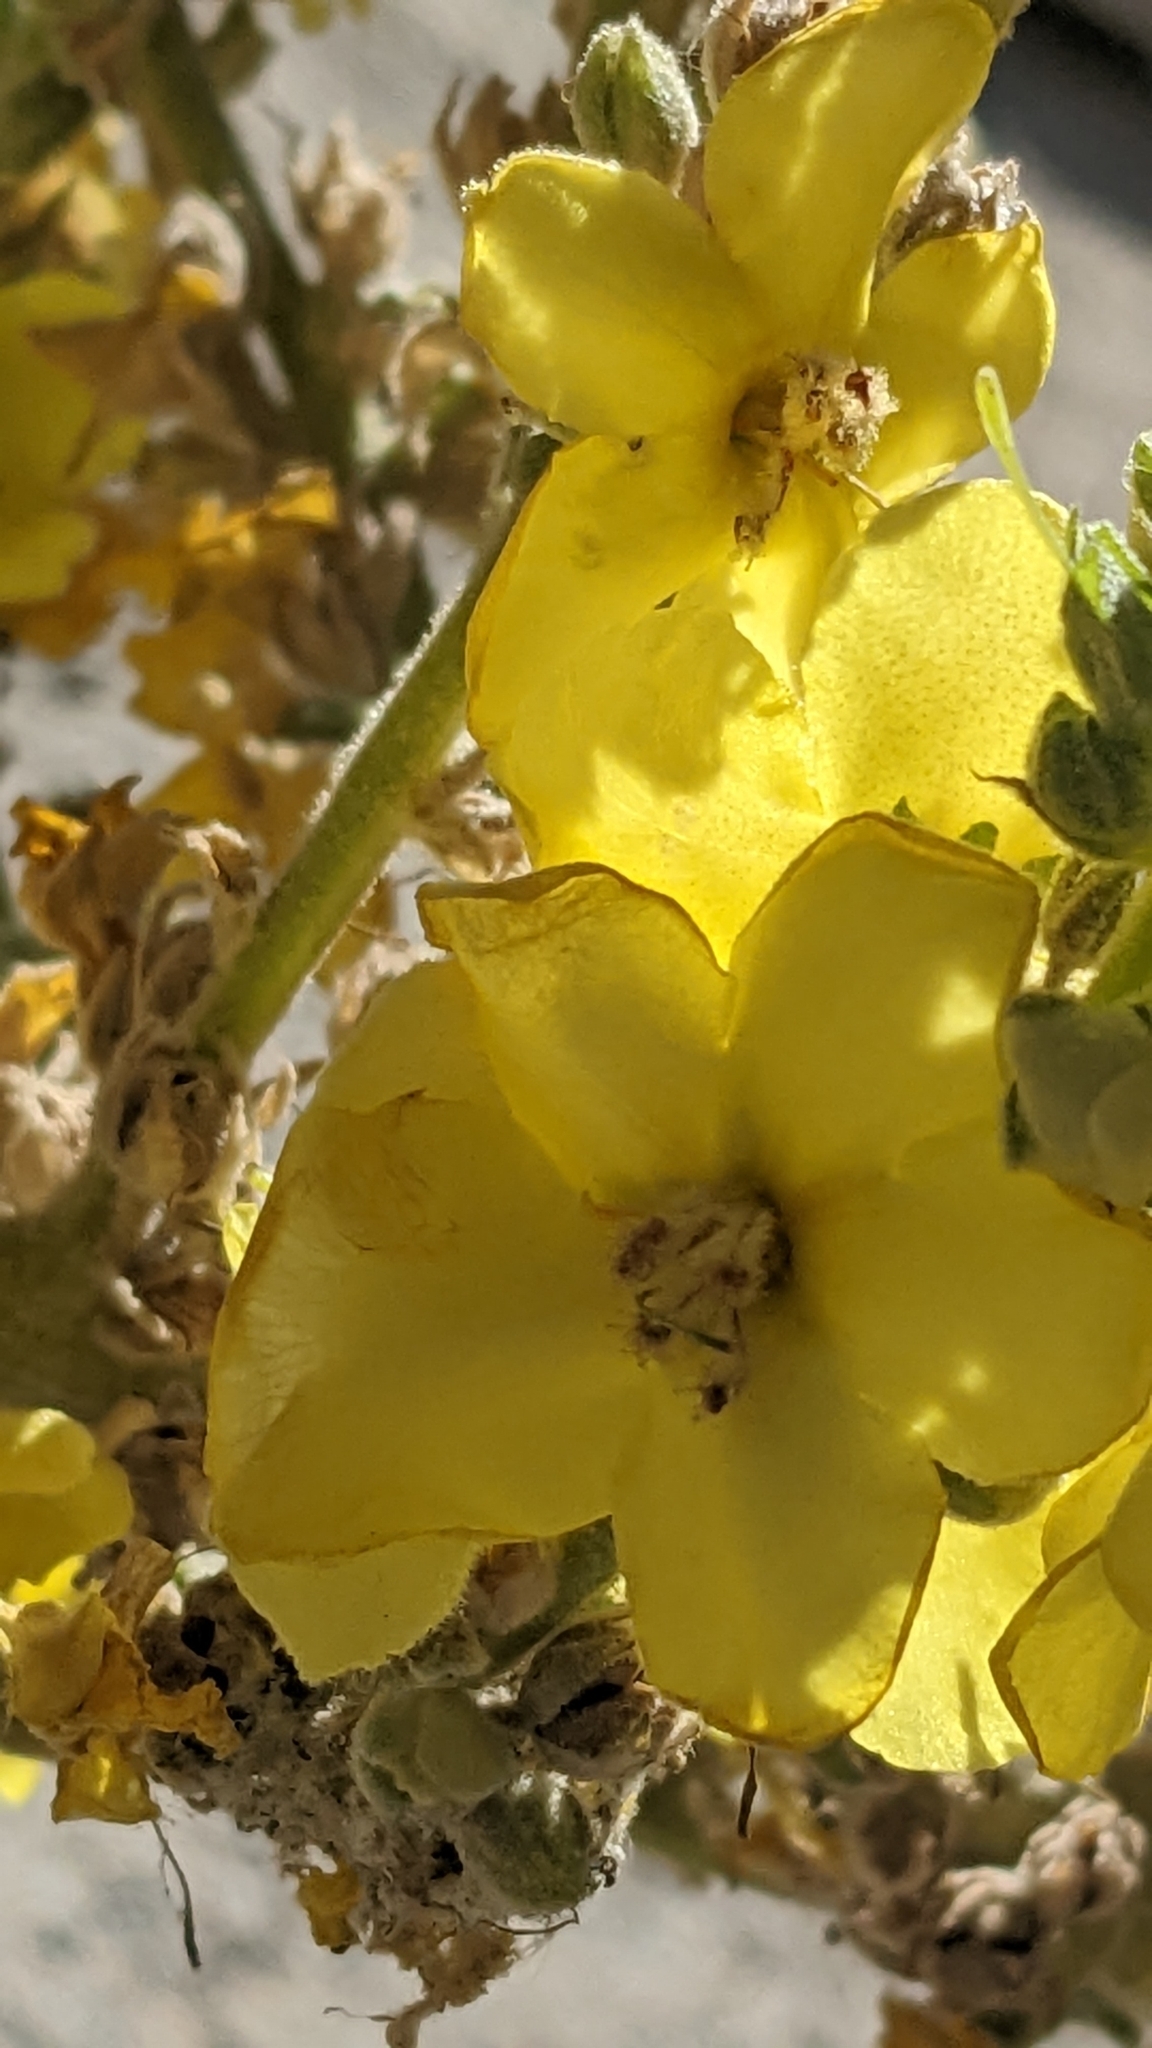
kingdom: Plantae
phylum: Tracheophyta
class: Magnoliopsida
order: Lamiales
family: Scrophulariaceae
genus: Verbascum
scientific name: Verbascum songaricum
